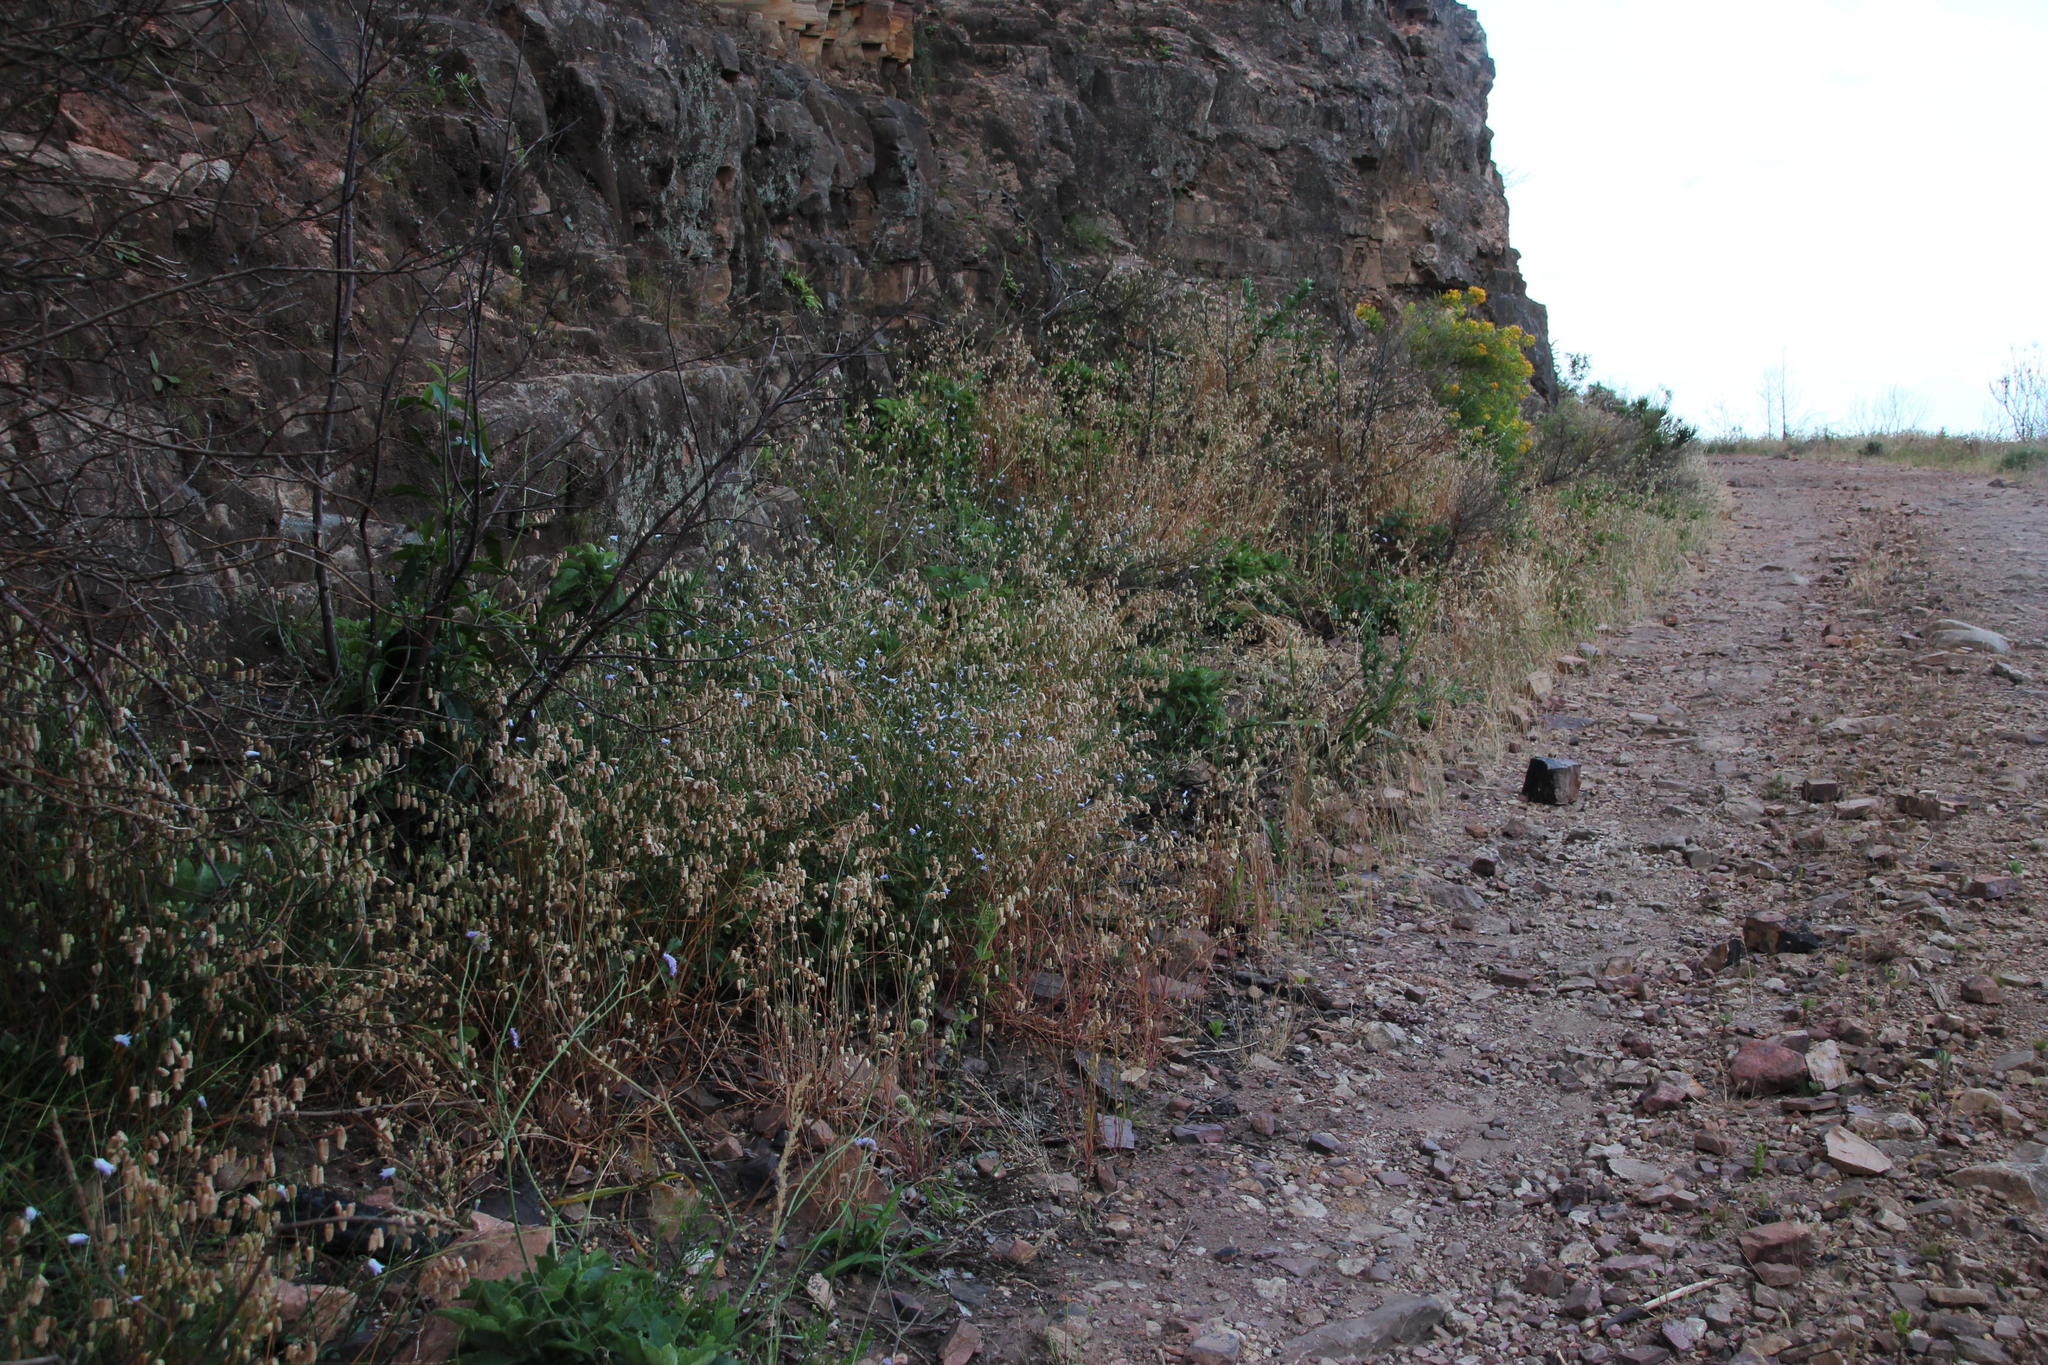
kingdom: Plantae
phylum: Tracheophyta
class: Liliopsida
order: Poales
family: Poaceae
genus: Briza
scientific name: Briza maxima
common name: Big quakinggrass
